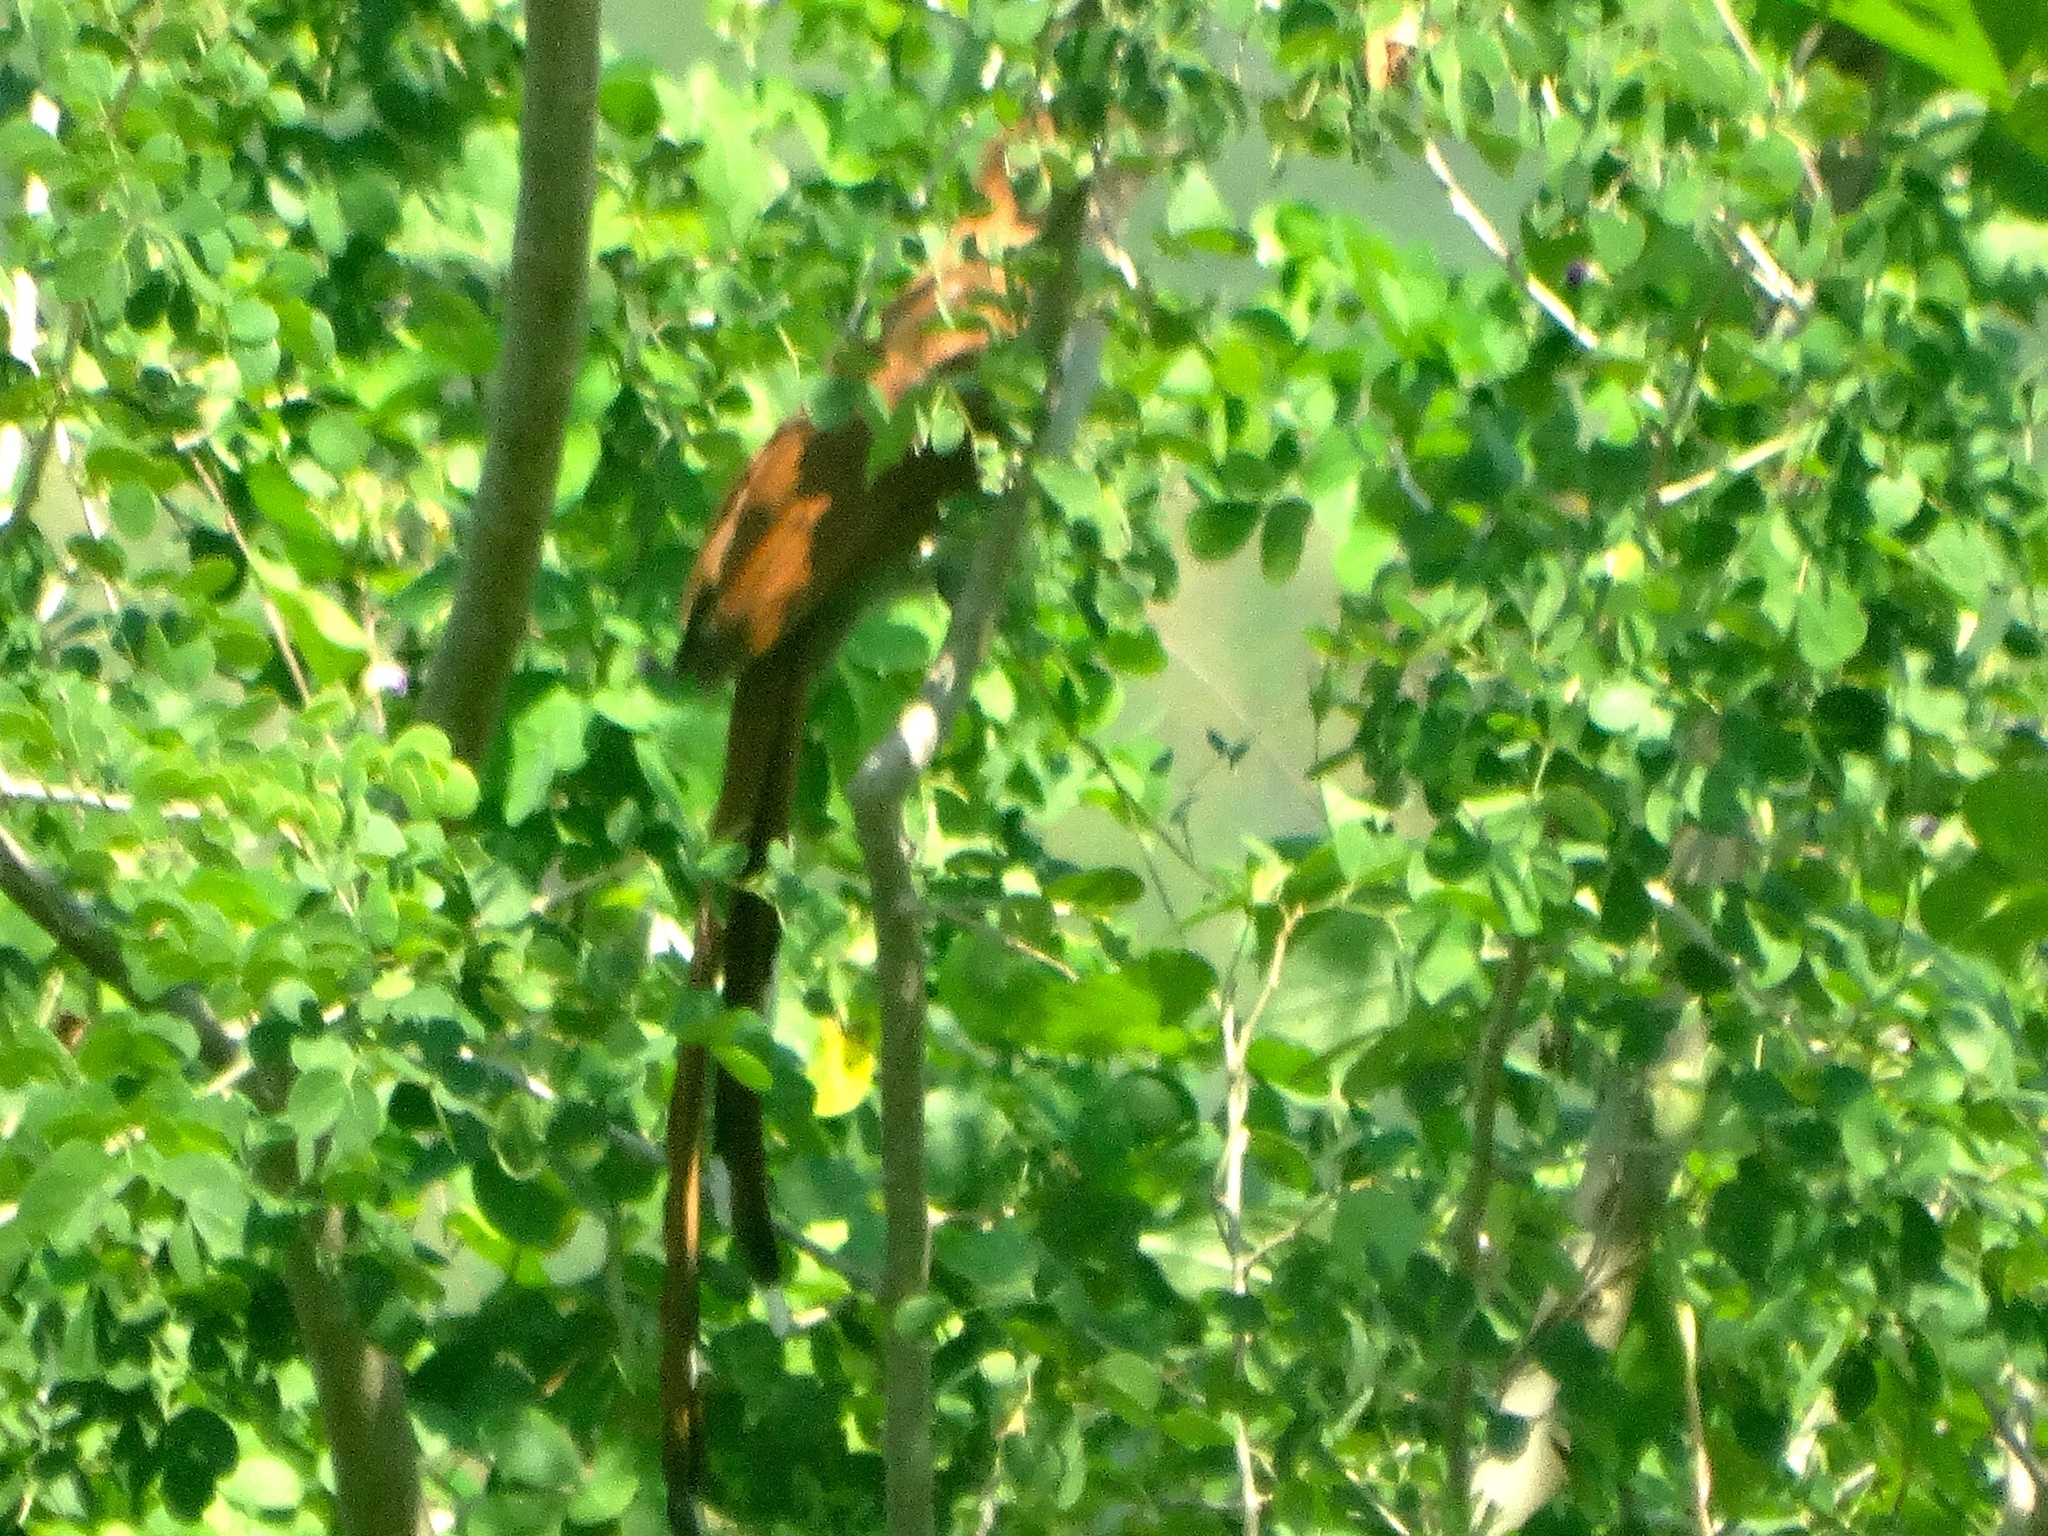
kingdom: Animalia
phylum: Chordata
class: Aves
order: Cuculiformes
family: Cuculidae
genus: Piaya
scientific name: Piaya cayana
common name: Squirrel cuckoo
